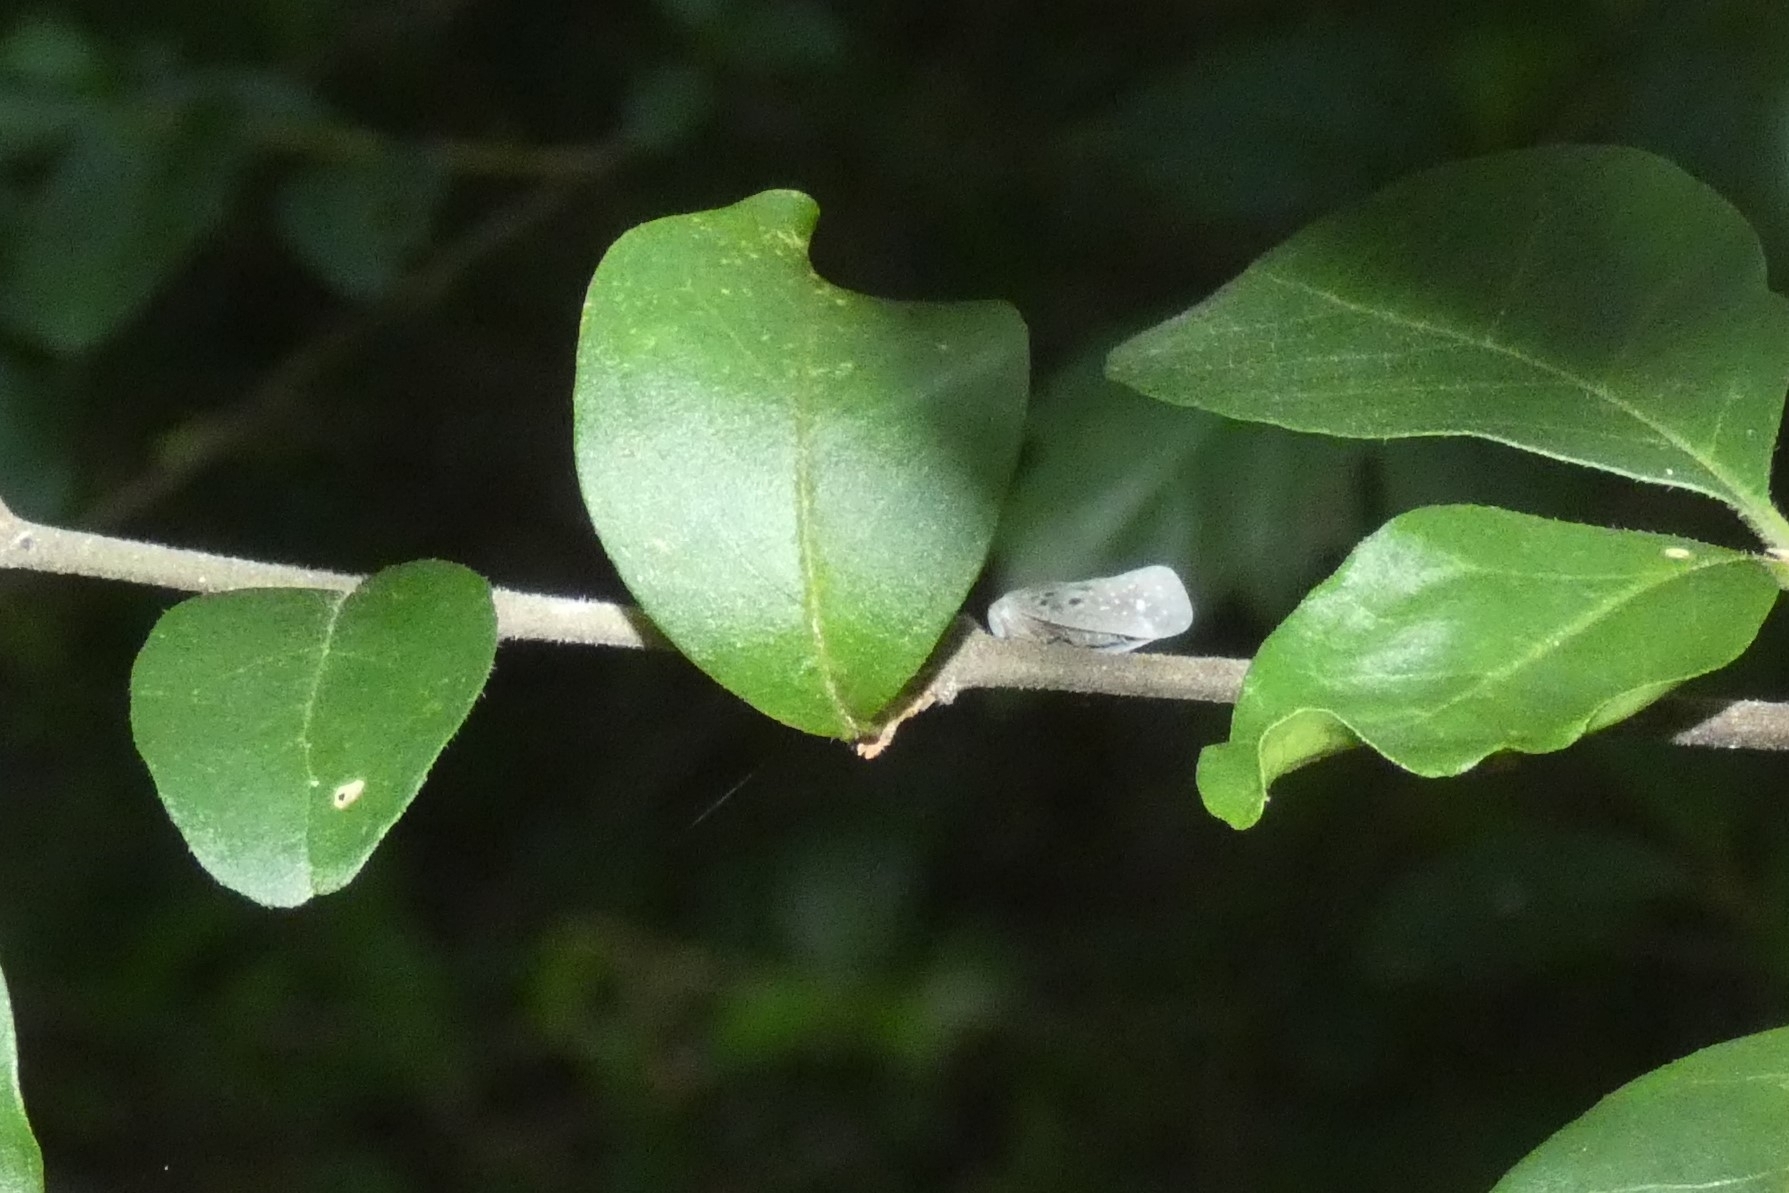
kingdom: Animalia
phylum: Arthropoda
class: Insecta
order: Hemiptera
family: Flatidae
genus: Metcalfa
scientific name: Metcalfa pruinosa
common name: Citrus flatid planthopper
